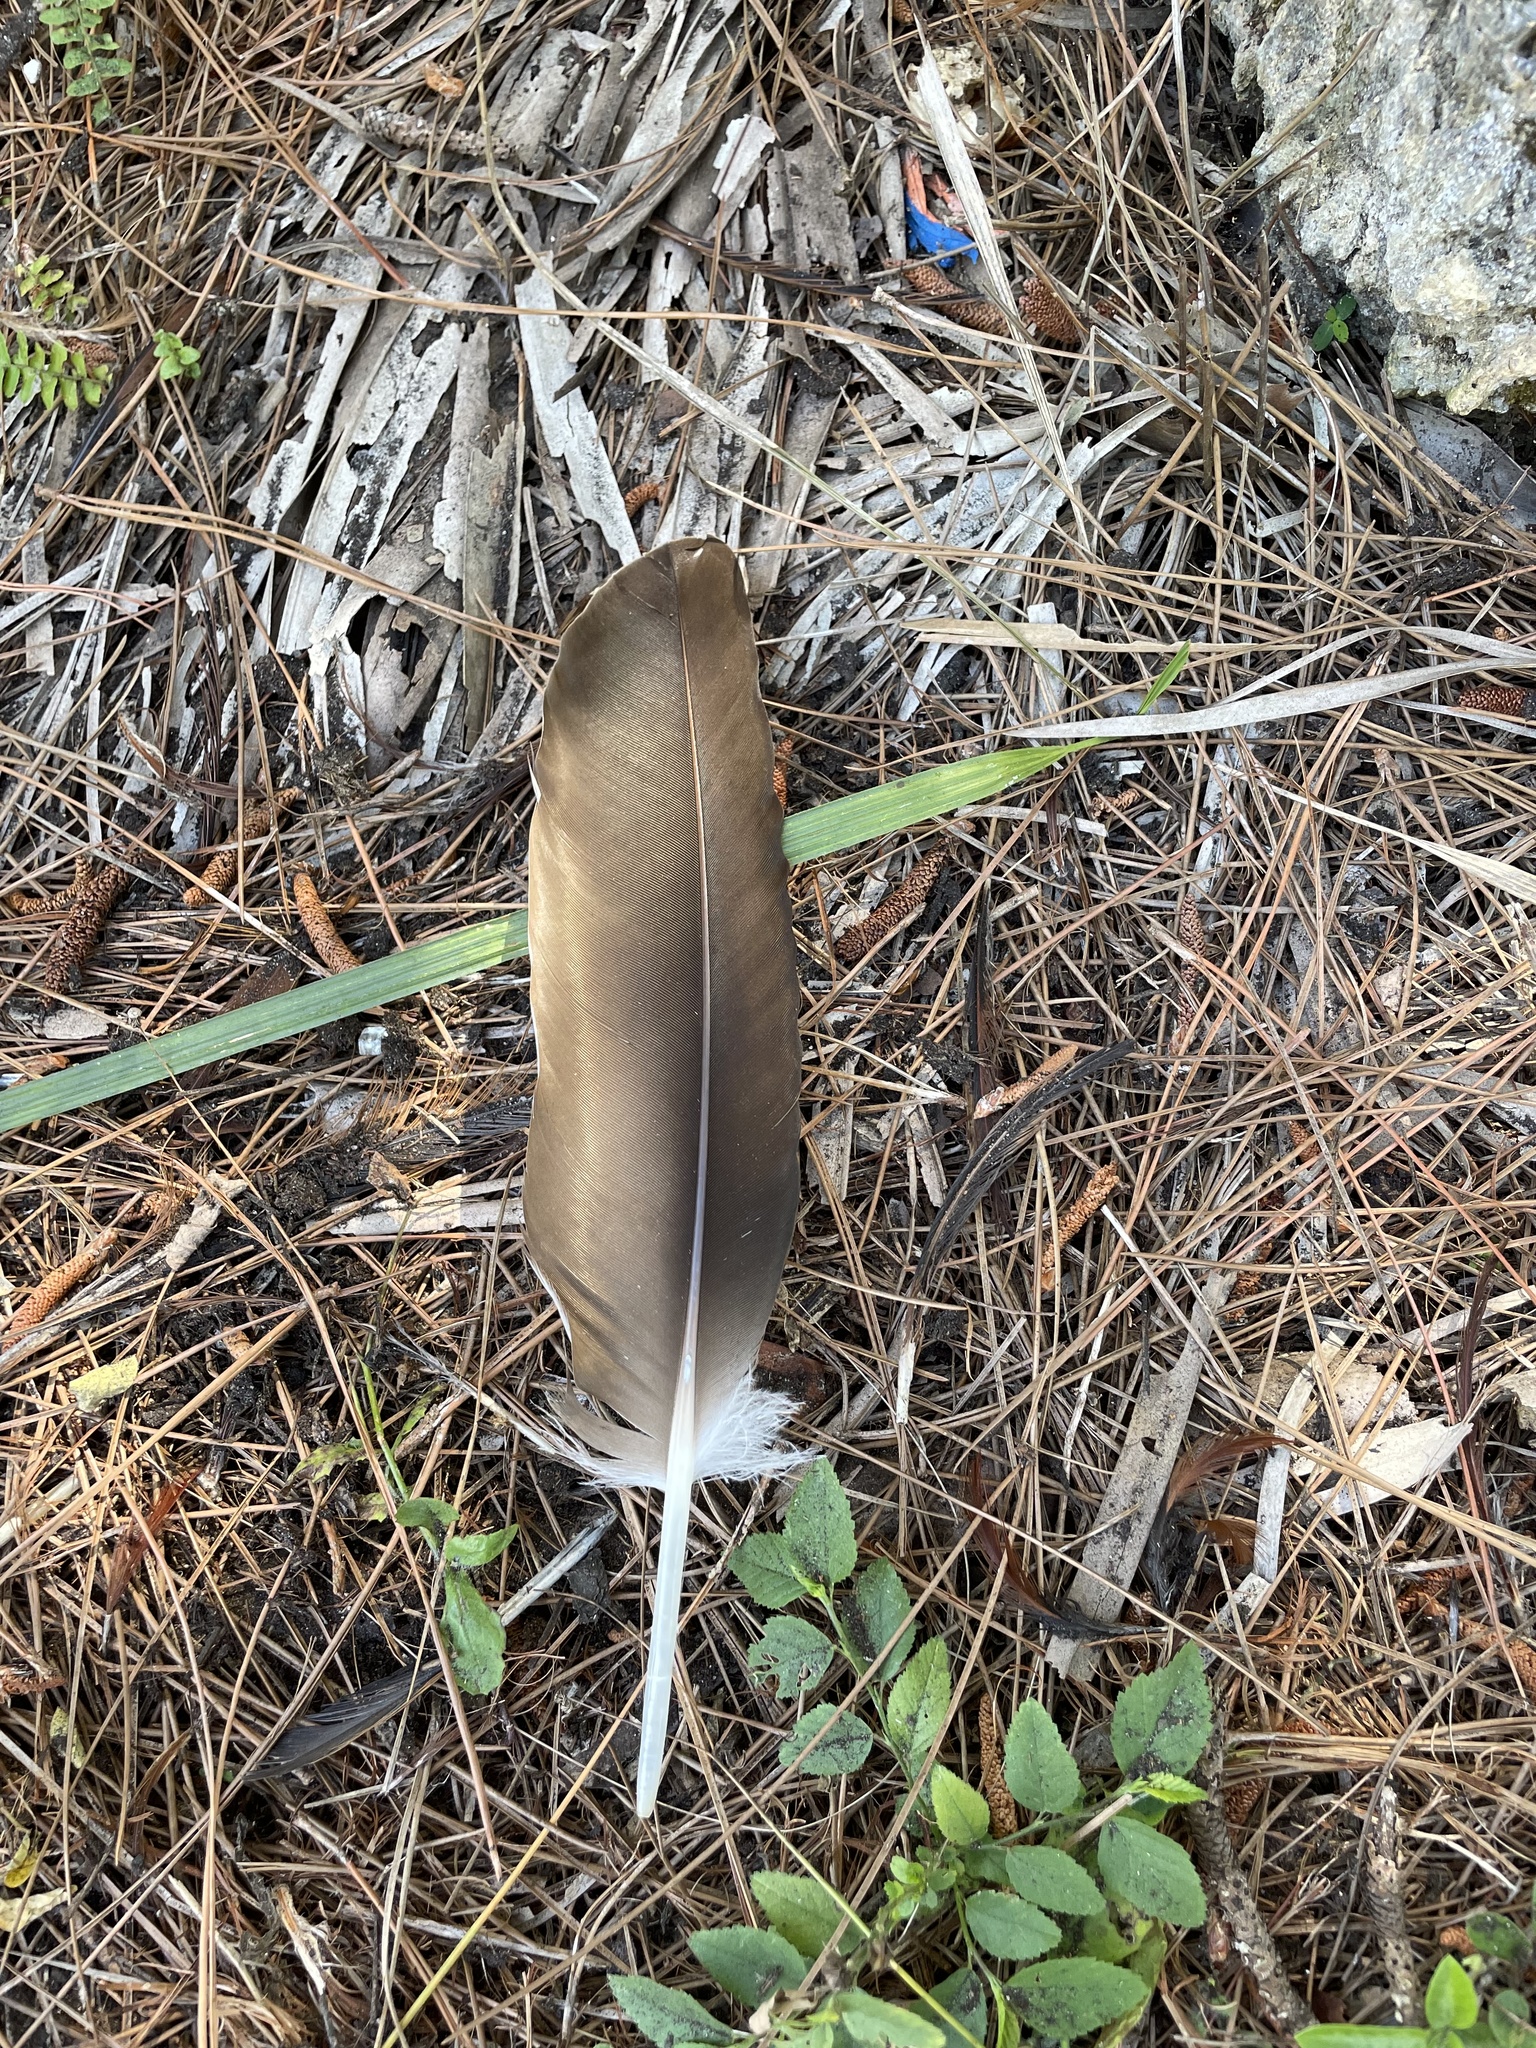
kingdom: Animalia
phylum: Chordata
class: Aves
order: Accipitriformes
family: Cathartidae
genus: Cathartes
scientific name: Cathartes aura
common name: Turkey vulture
